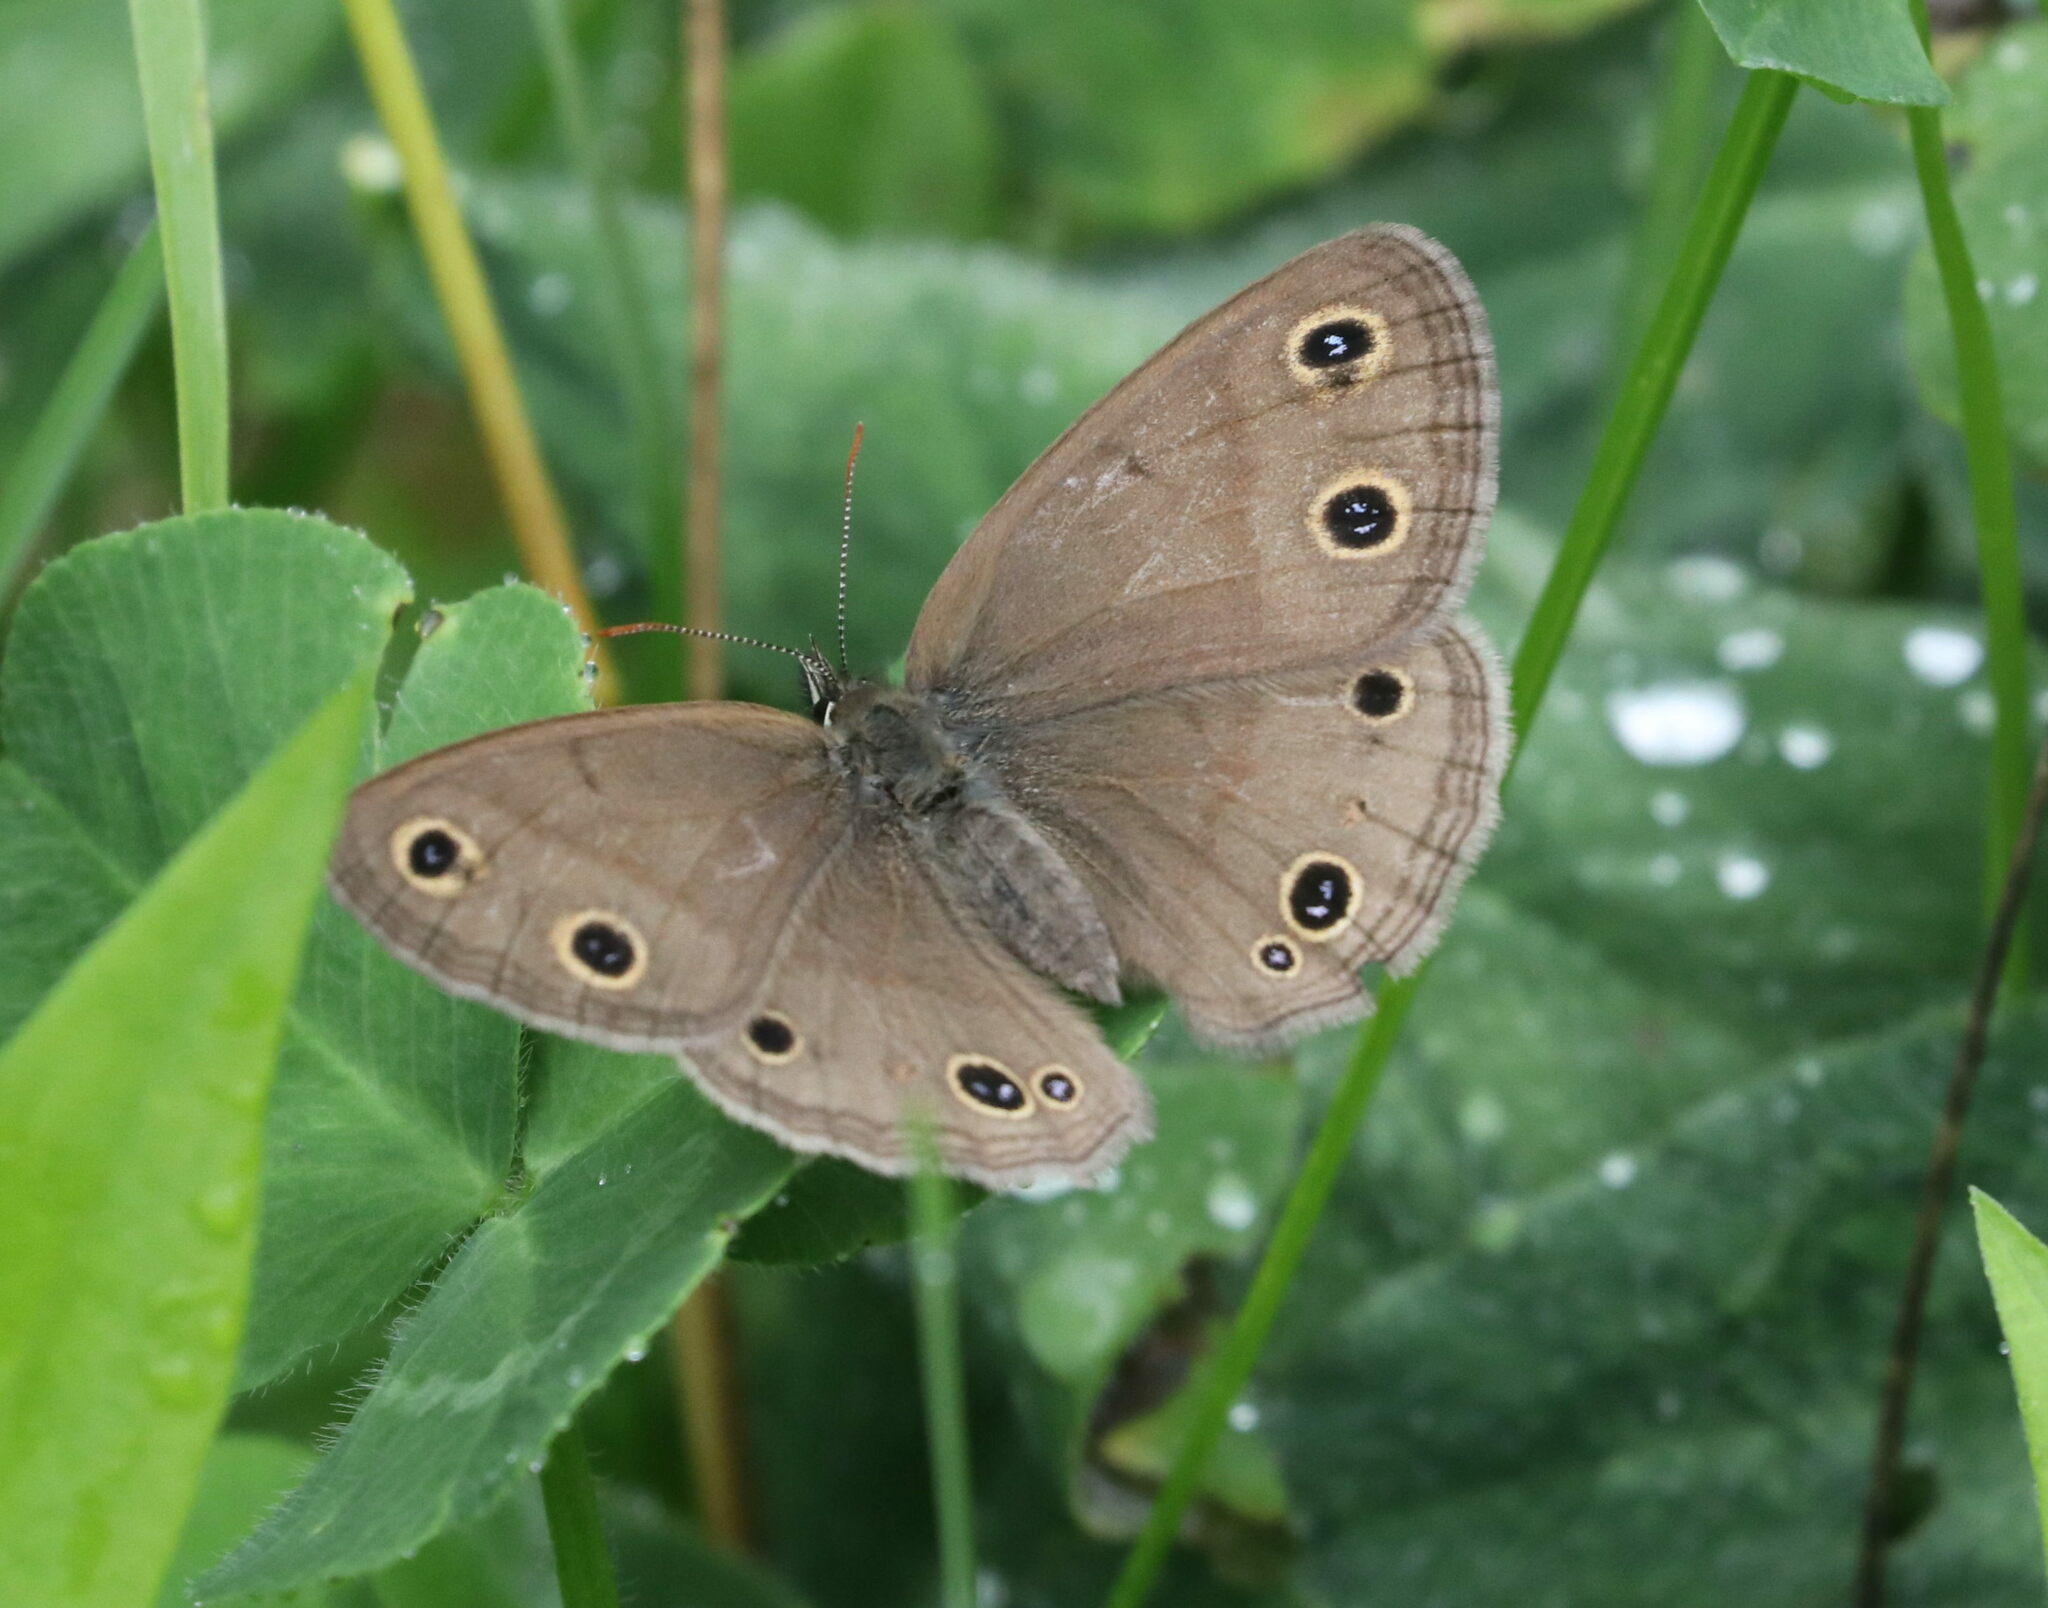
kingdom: Animalia
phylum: Arthropoda
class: Insecta
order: Lepidoptera
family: Nymphalidae
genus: Euptychia
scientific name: Euptychia cymela
